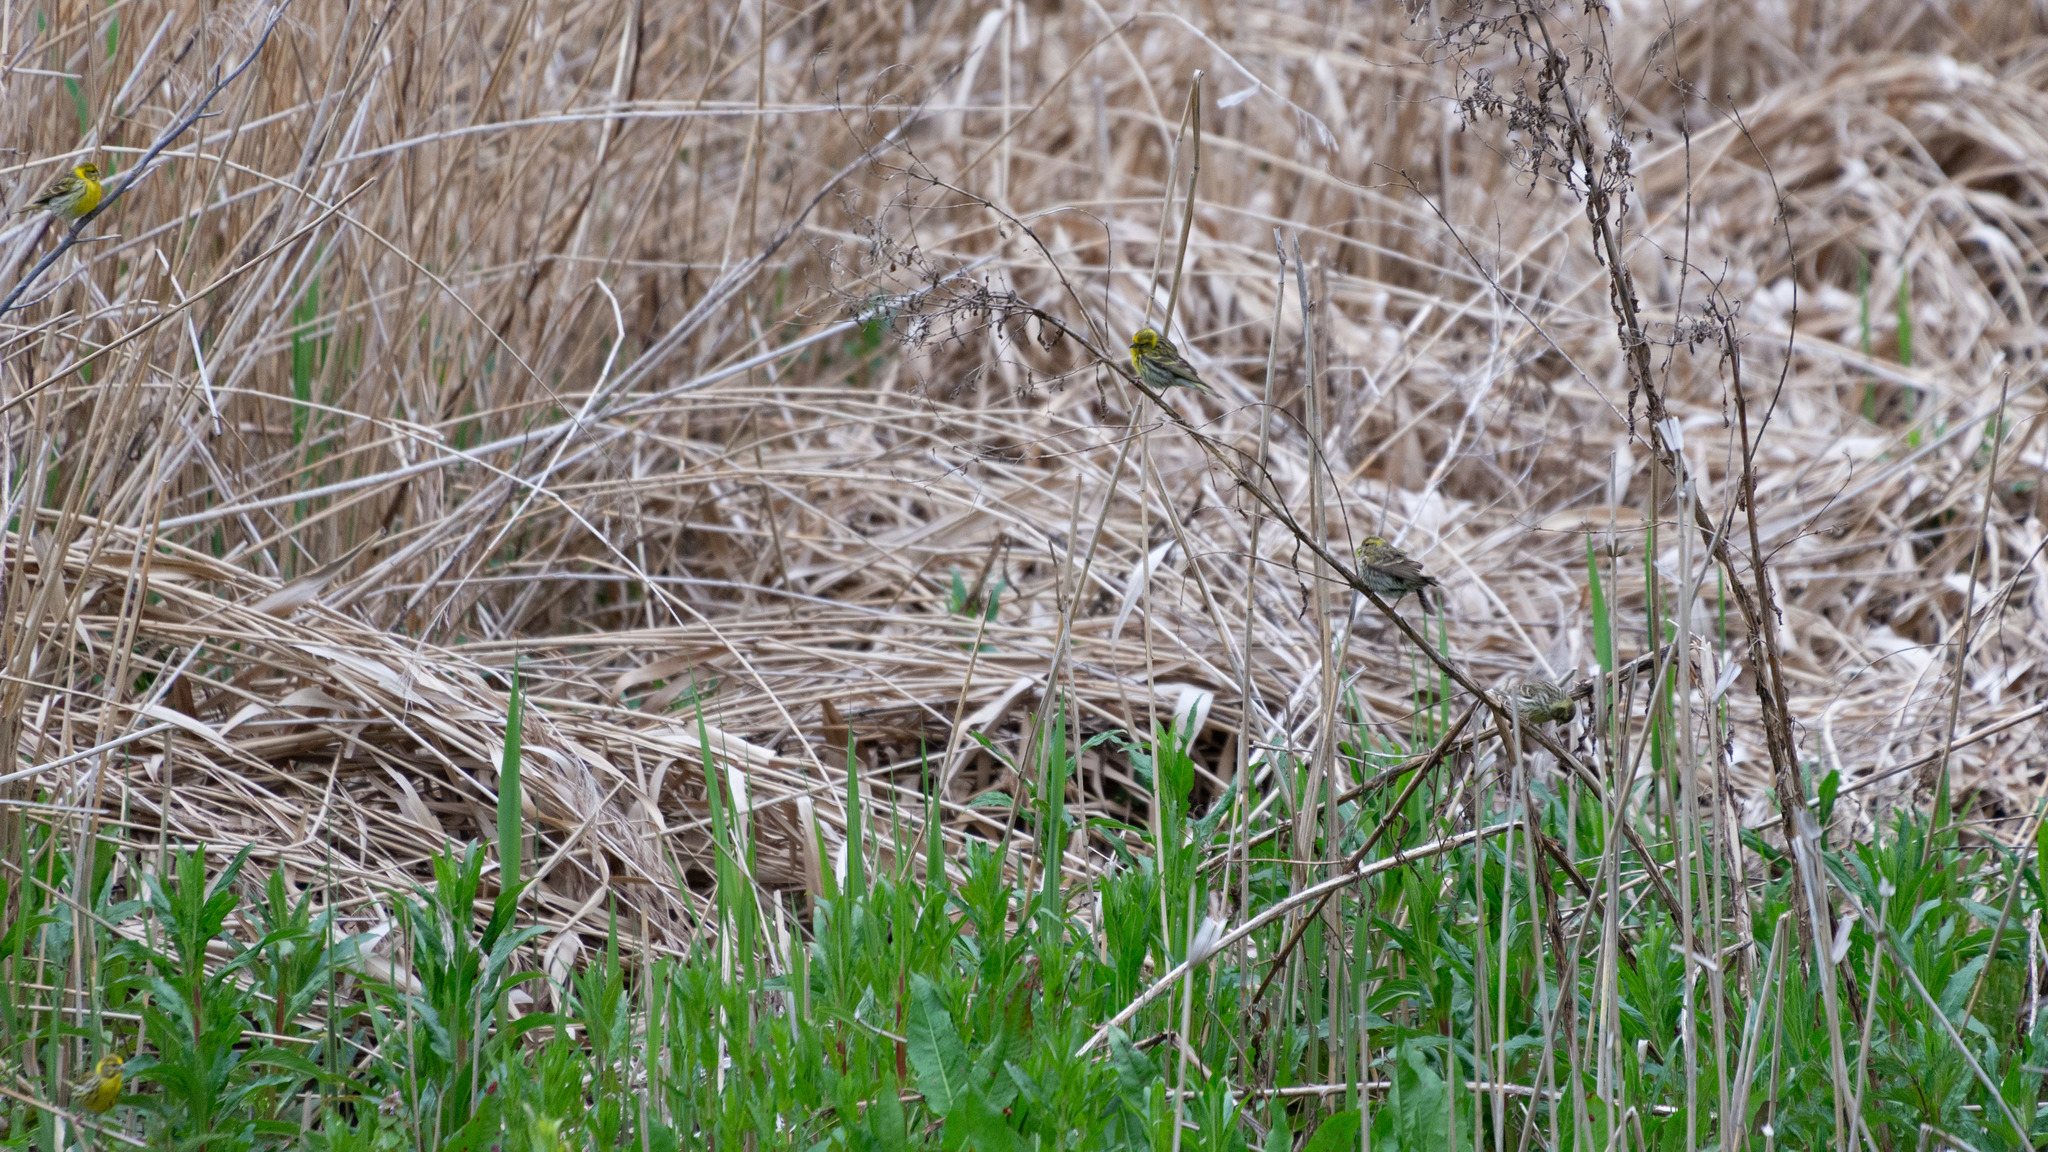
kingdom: Animalia
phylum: Chordata
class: Aves
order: Passeriformes
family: Fringillidae
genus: Serinus
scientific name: Serinus serinus
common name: European serin
